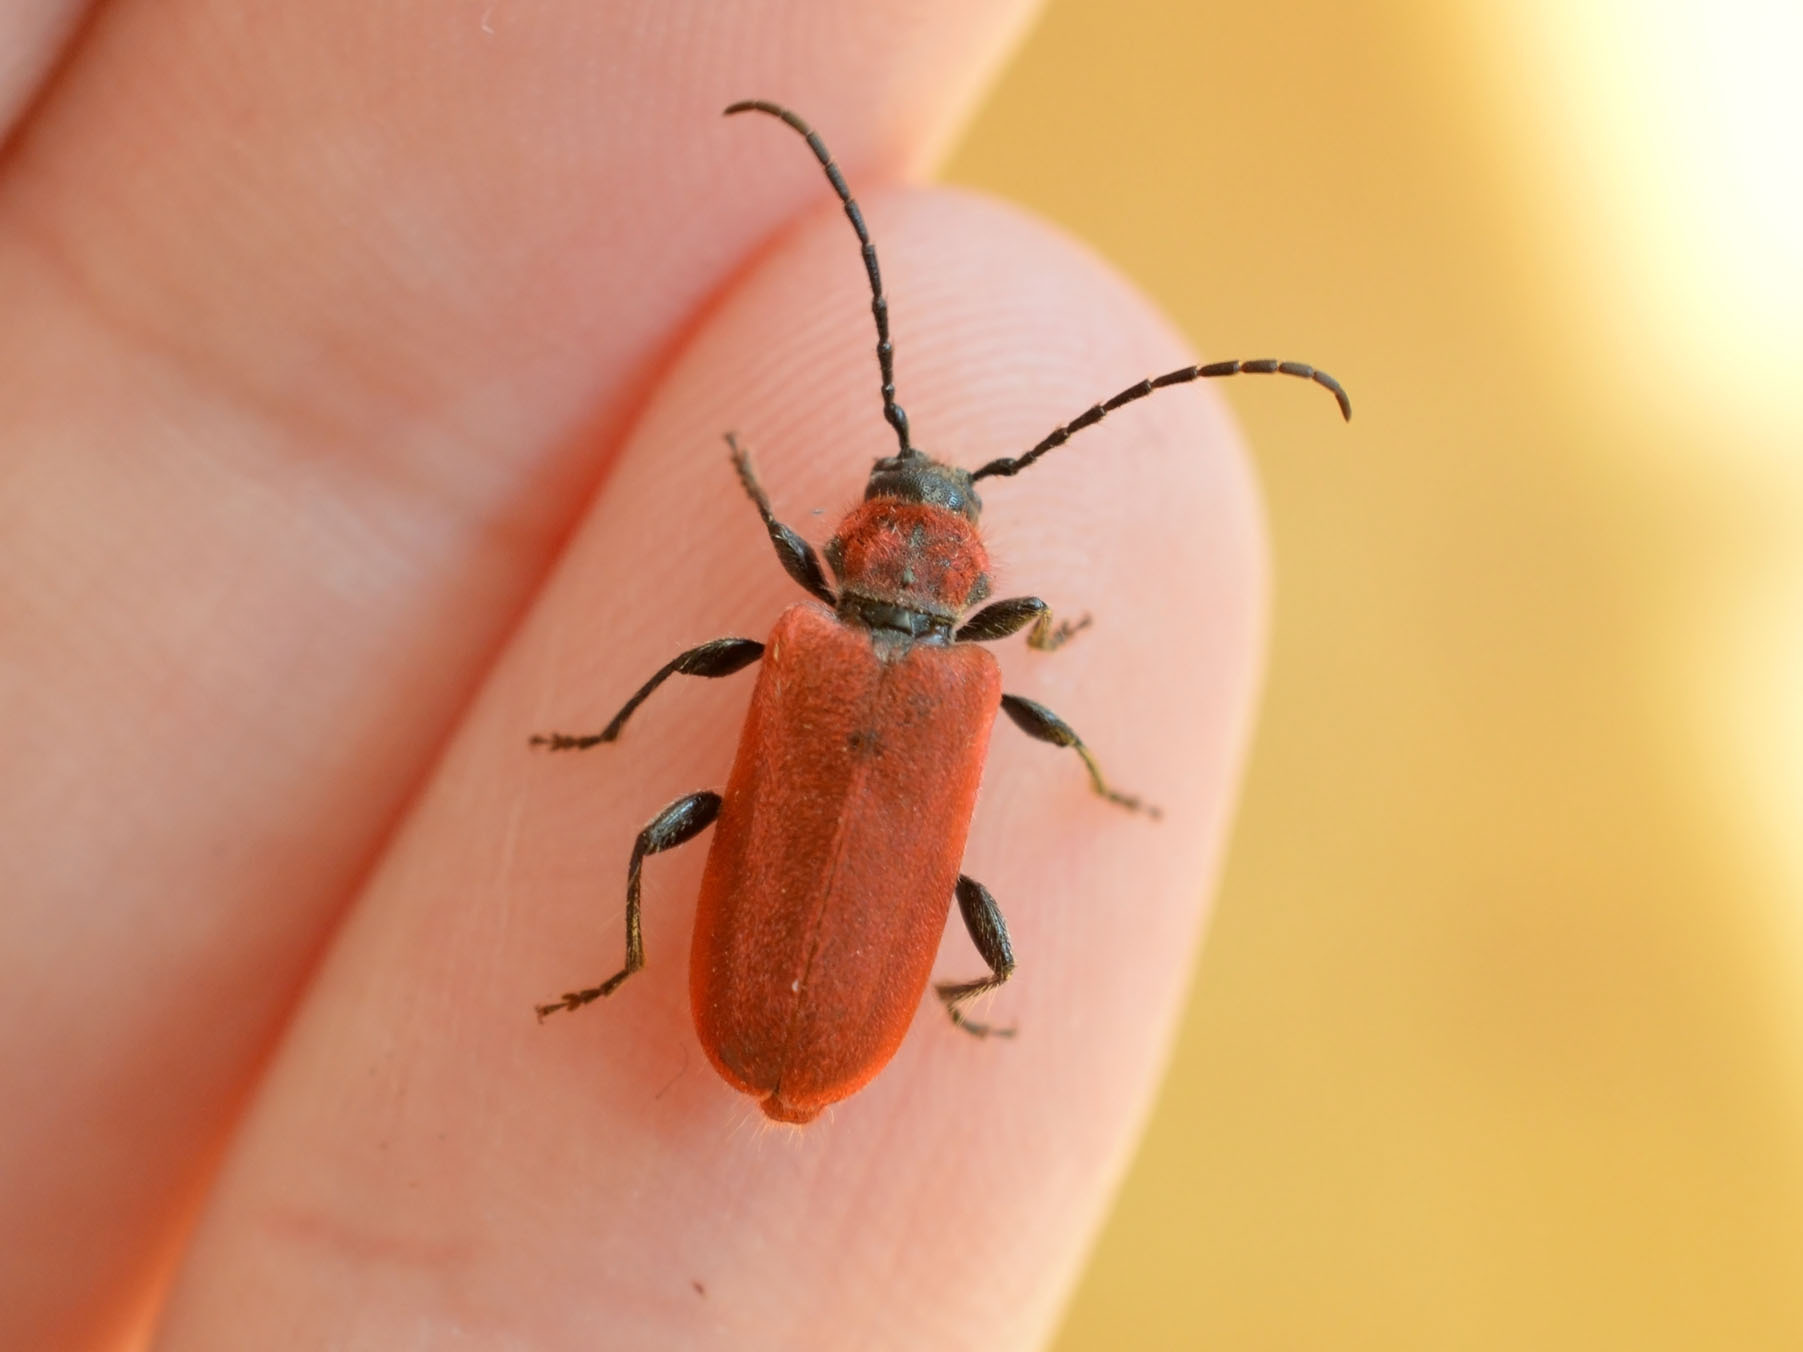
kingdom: Animalia
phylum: Arthropoda
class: Insecta
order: Coleoptera
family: Cerambycidae
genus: Pyrrhidium
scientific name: Pyrrhidium sanguineum
